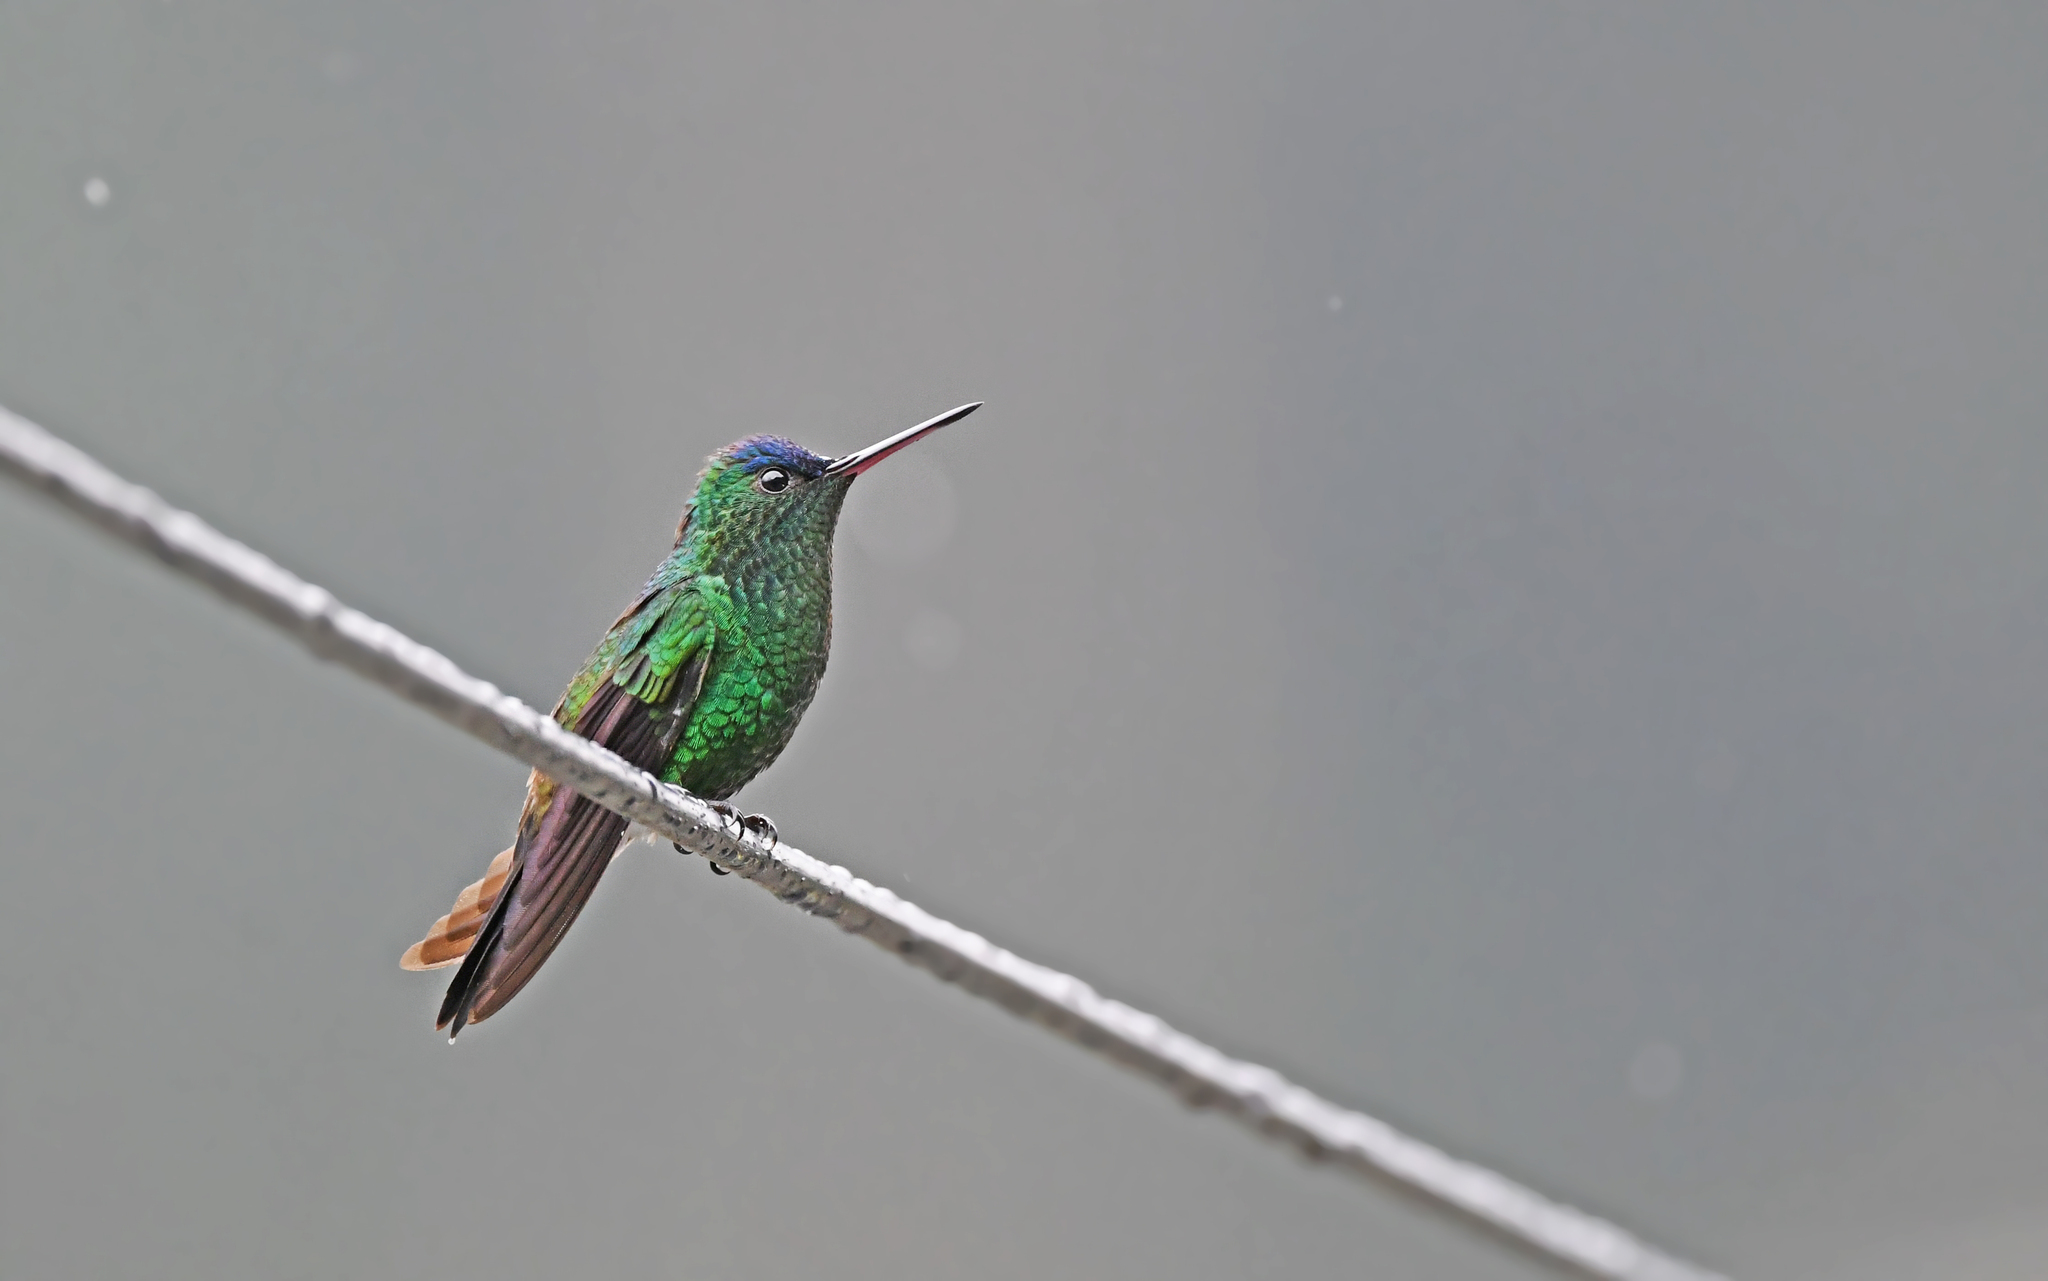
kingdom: Animalia
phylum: Chordata
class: Aves
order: Apodiformes
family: Trochilidae
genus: Saucerottia
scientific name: Saucerottia cyanifrons
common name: Indigo-capped hummingbird
